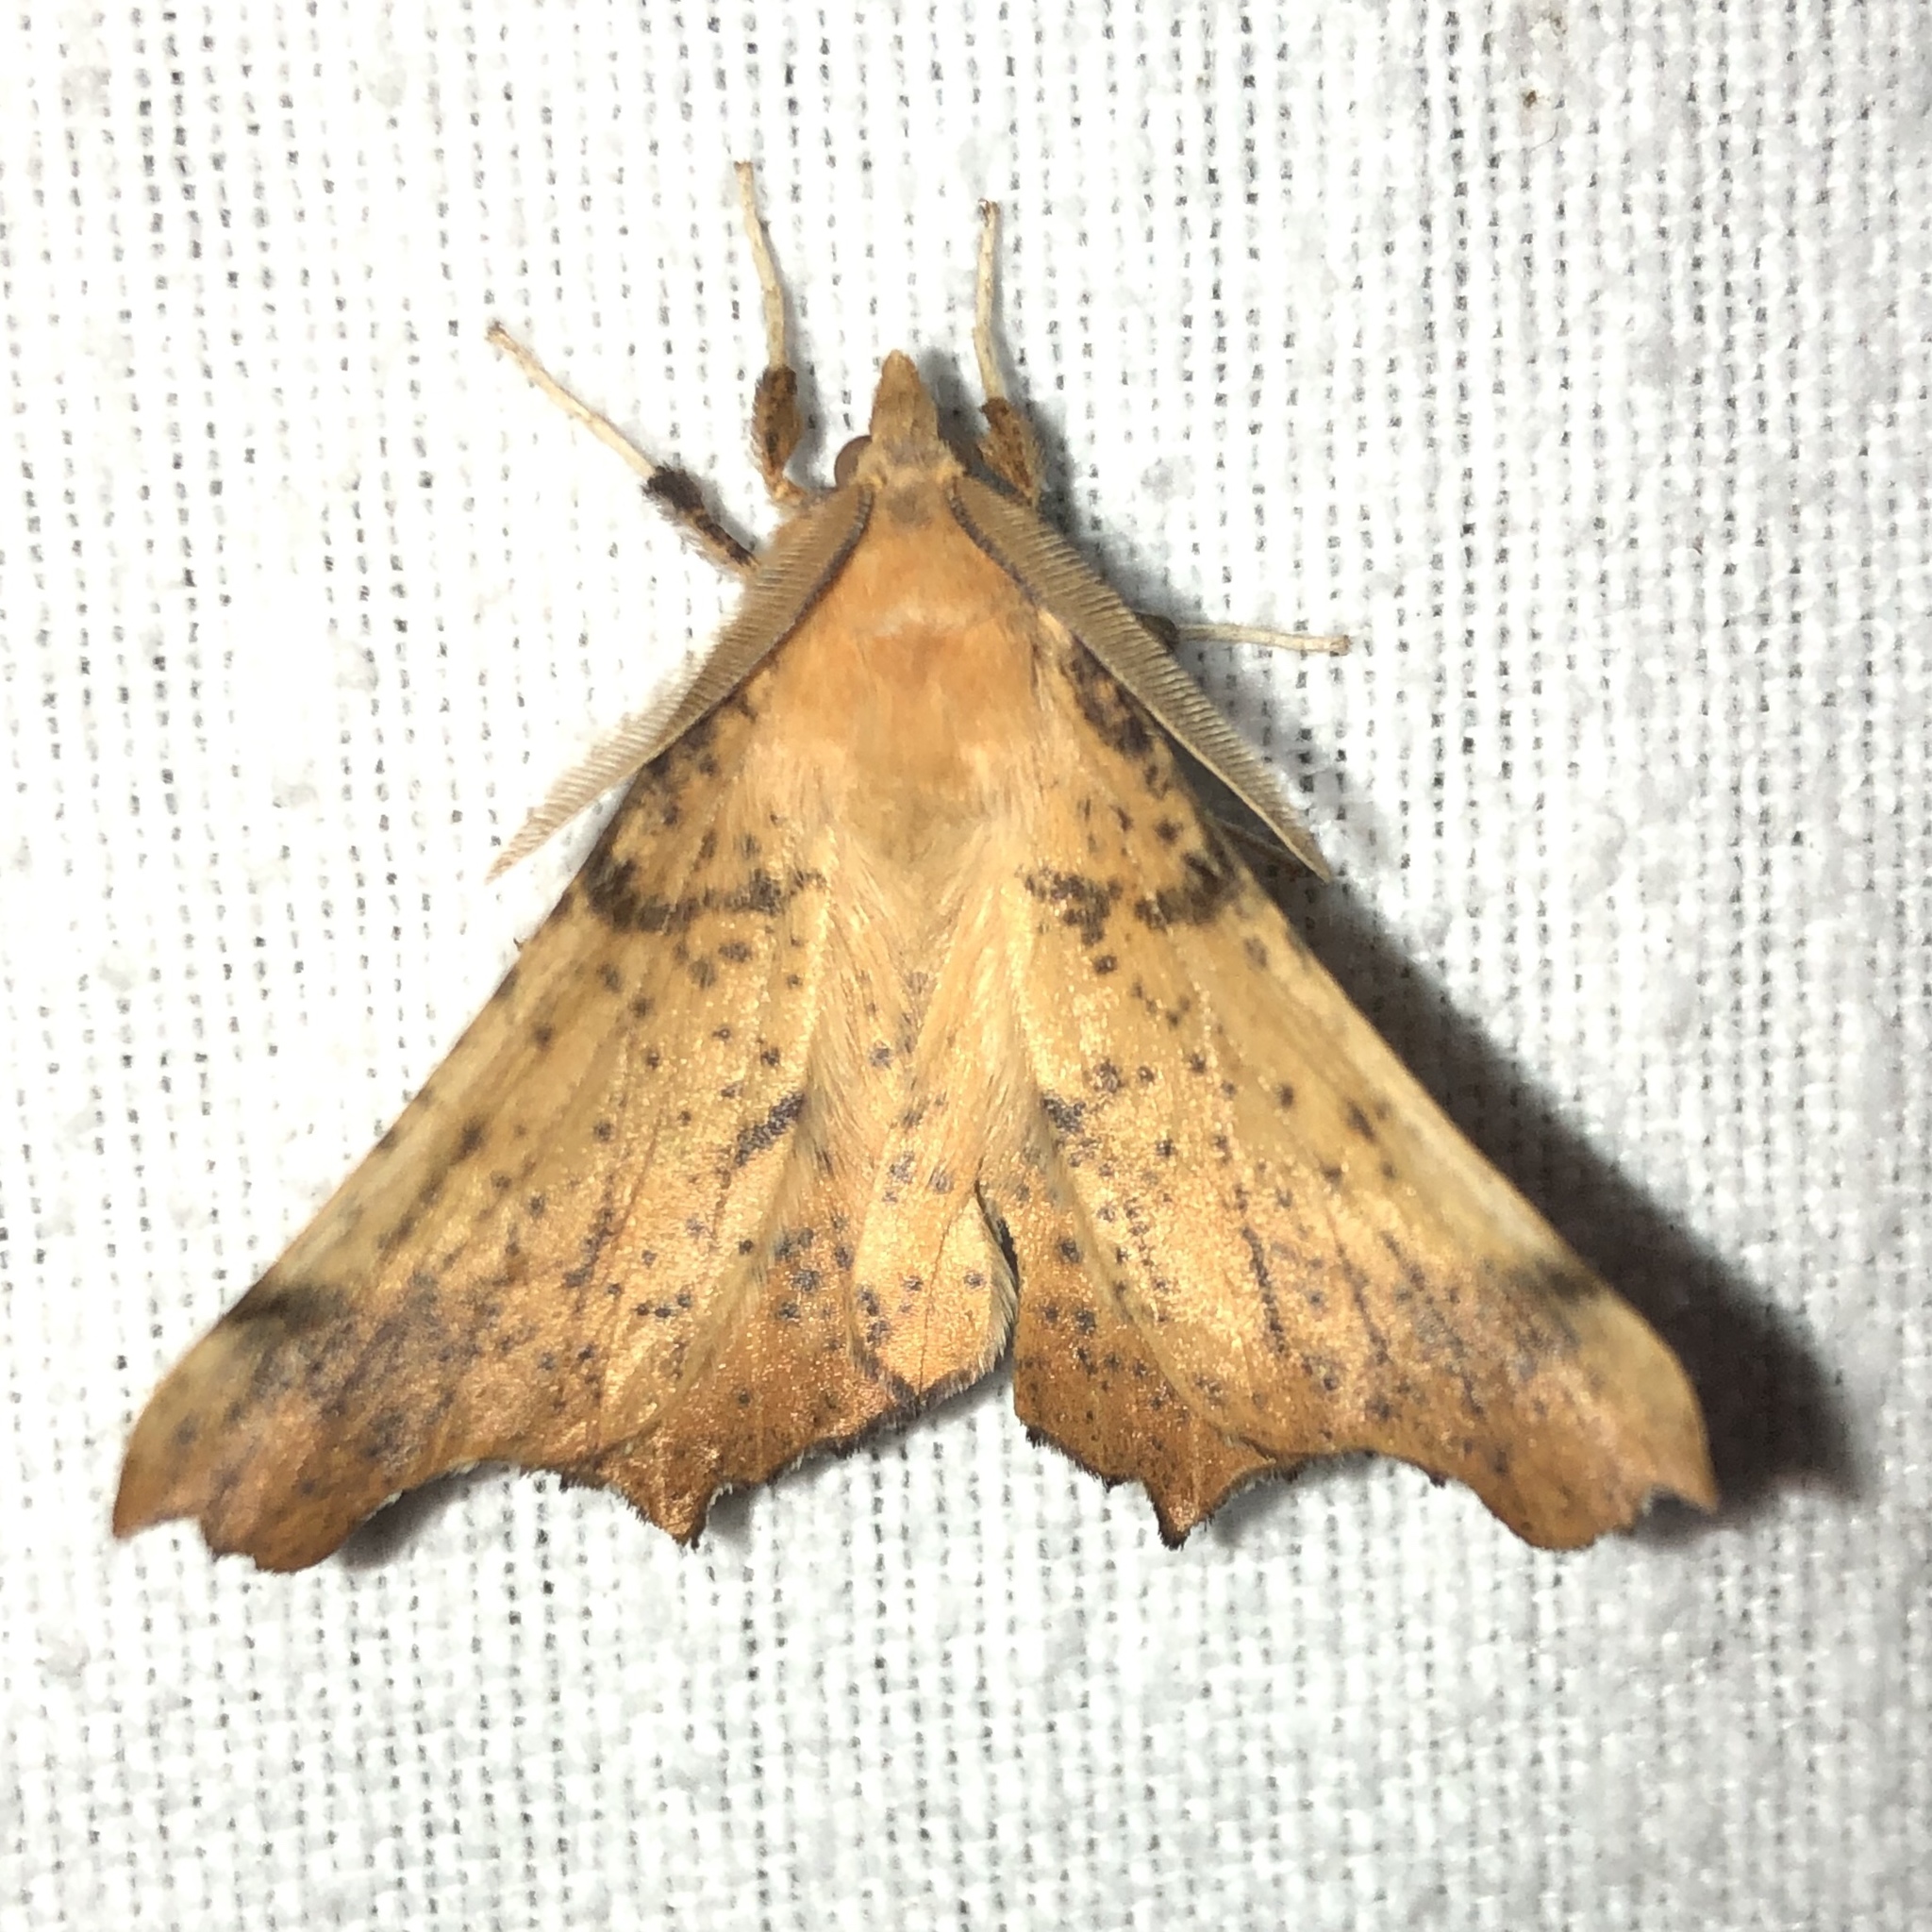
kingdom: Animalia
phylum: Arthropoda
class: Insecta
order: Lepidoptera
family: Geometridae
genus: Ennomos
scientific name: Ennomos magnaria
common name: Maple spanworm
